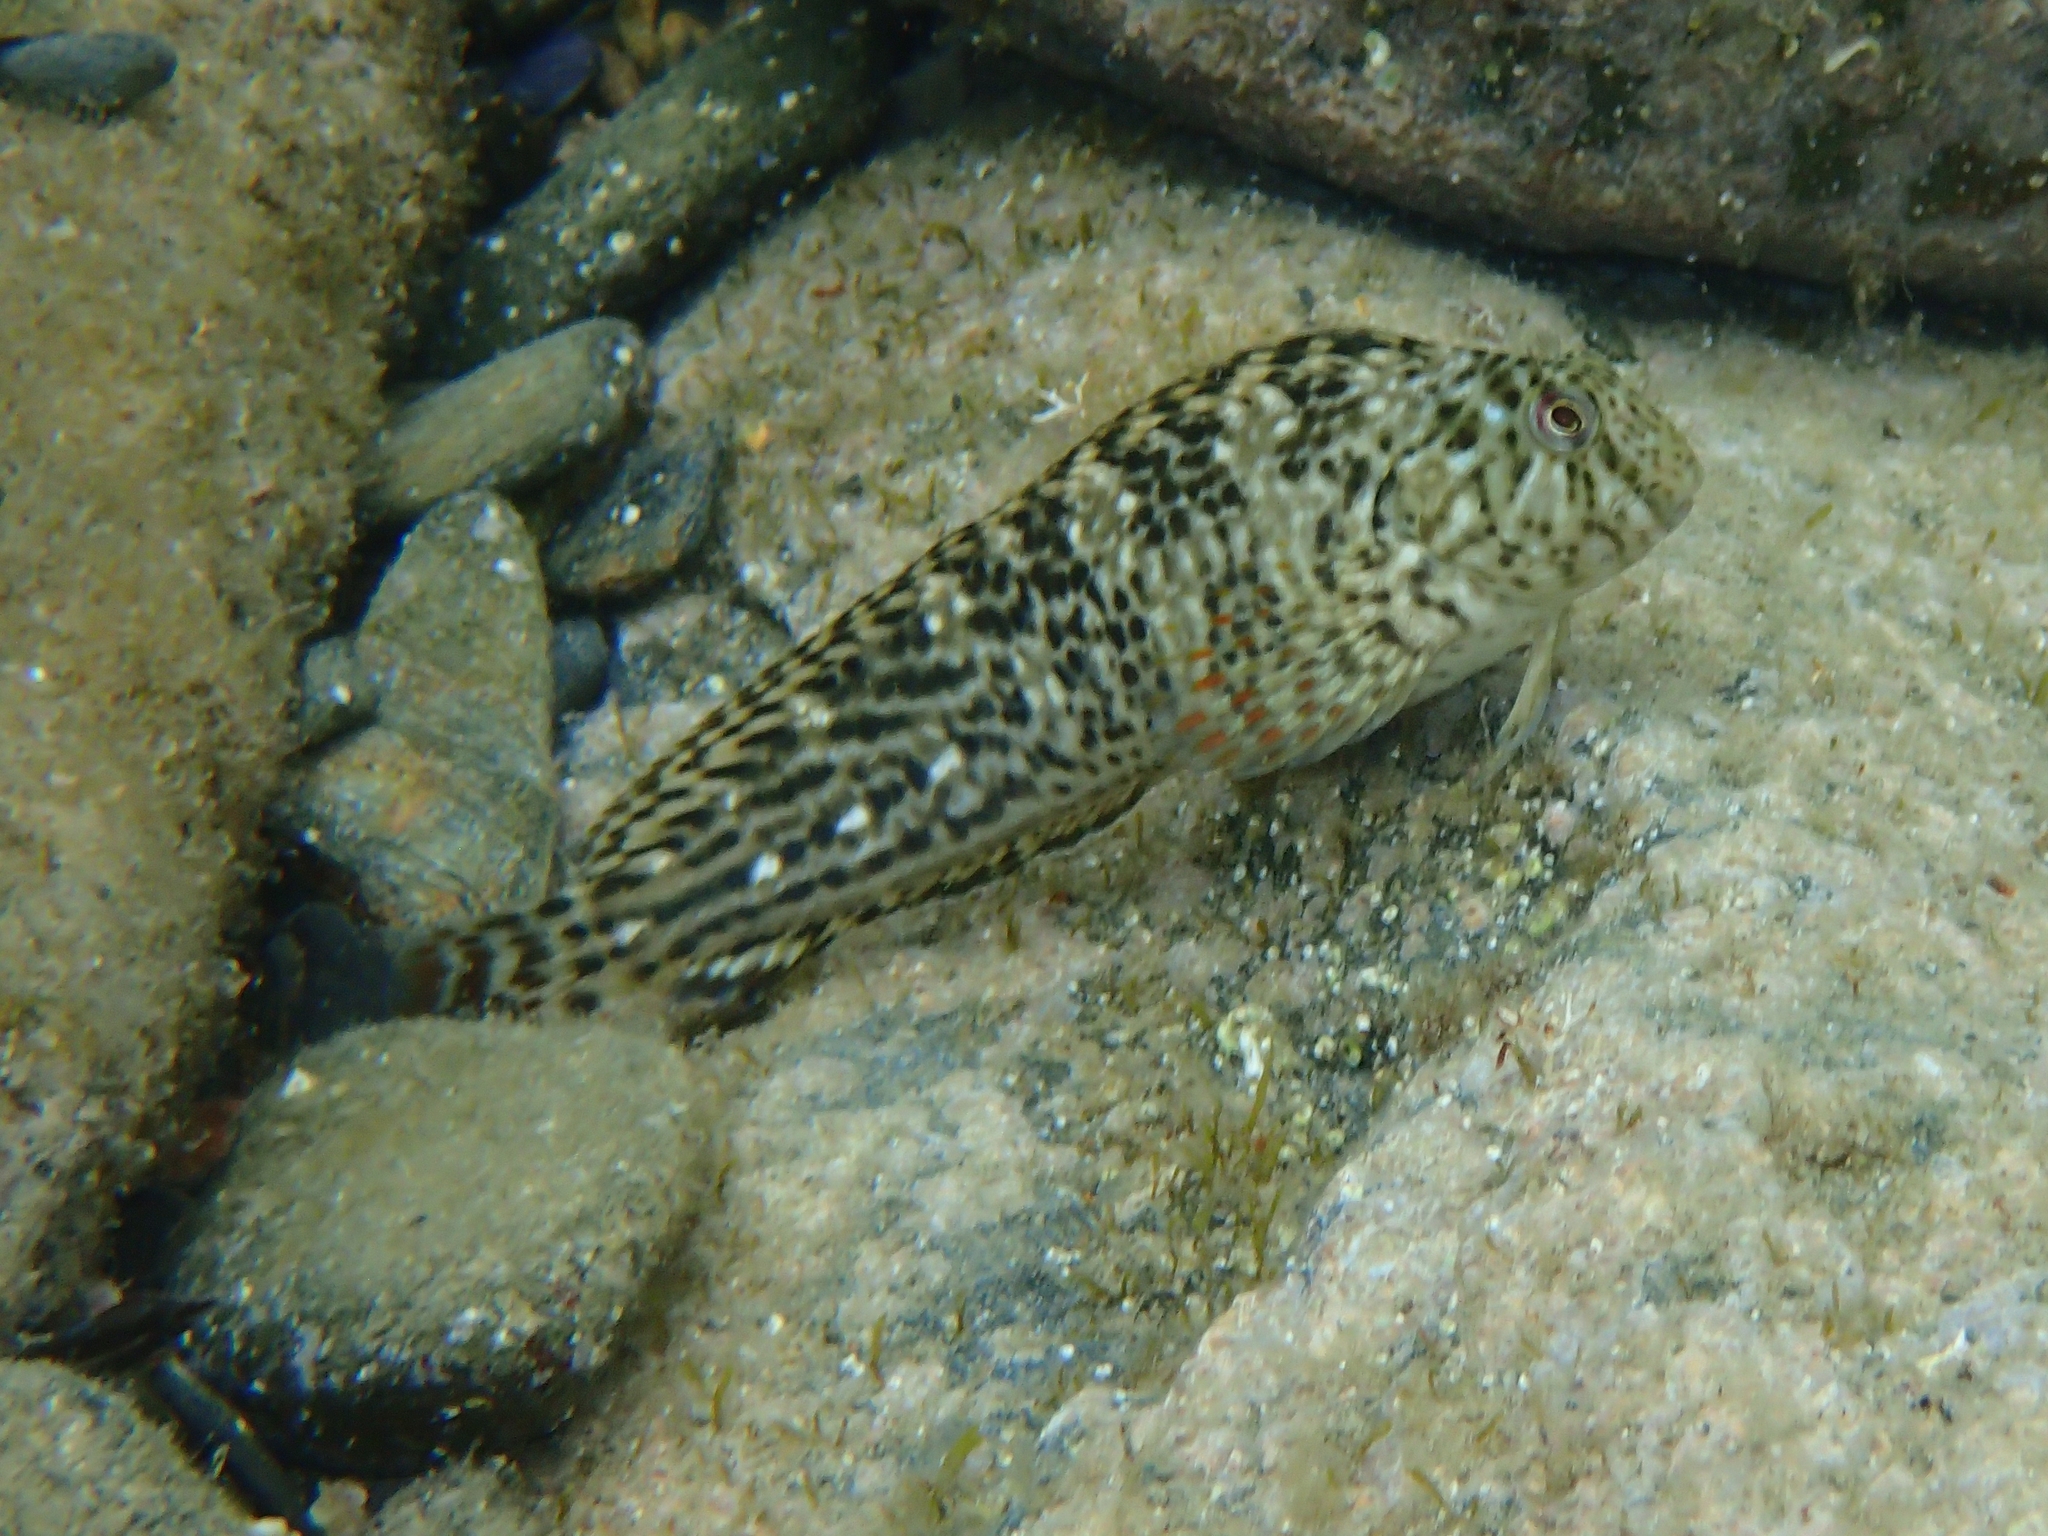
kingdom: Animalia
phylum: Chordata
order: Perciformes
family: Blenniidae
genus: Parablennius
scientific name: Parablennius sanguinolentus
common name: Black sea blenny
